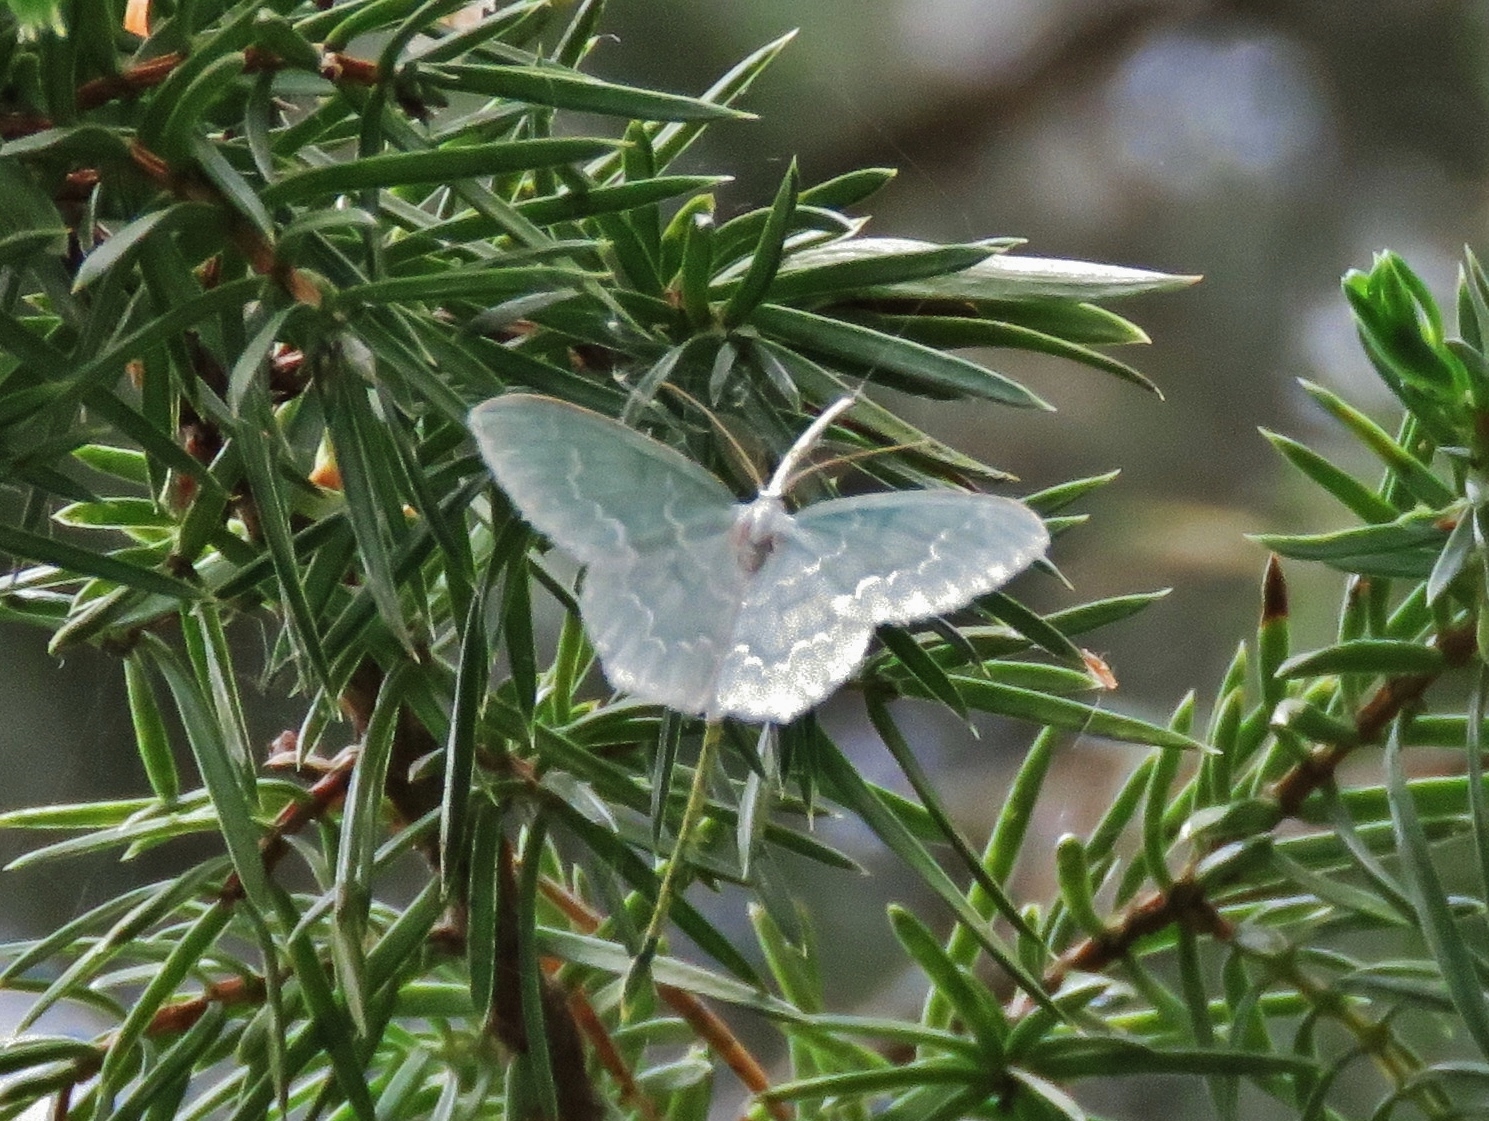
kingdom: Animalia
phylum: Arthropoda
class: Insecta
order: Lepidoptera
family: Geometridae
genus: Jodis
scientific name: Jodis putata
